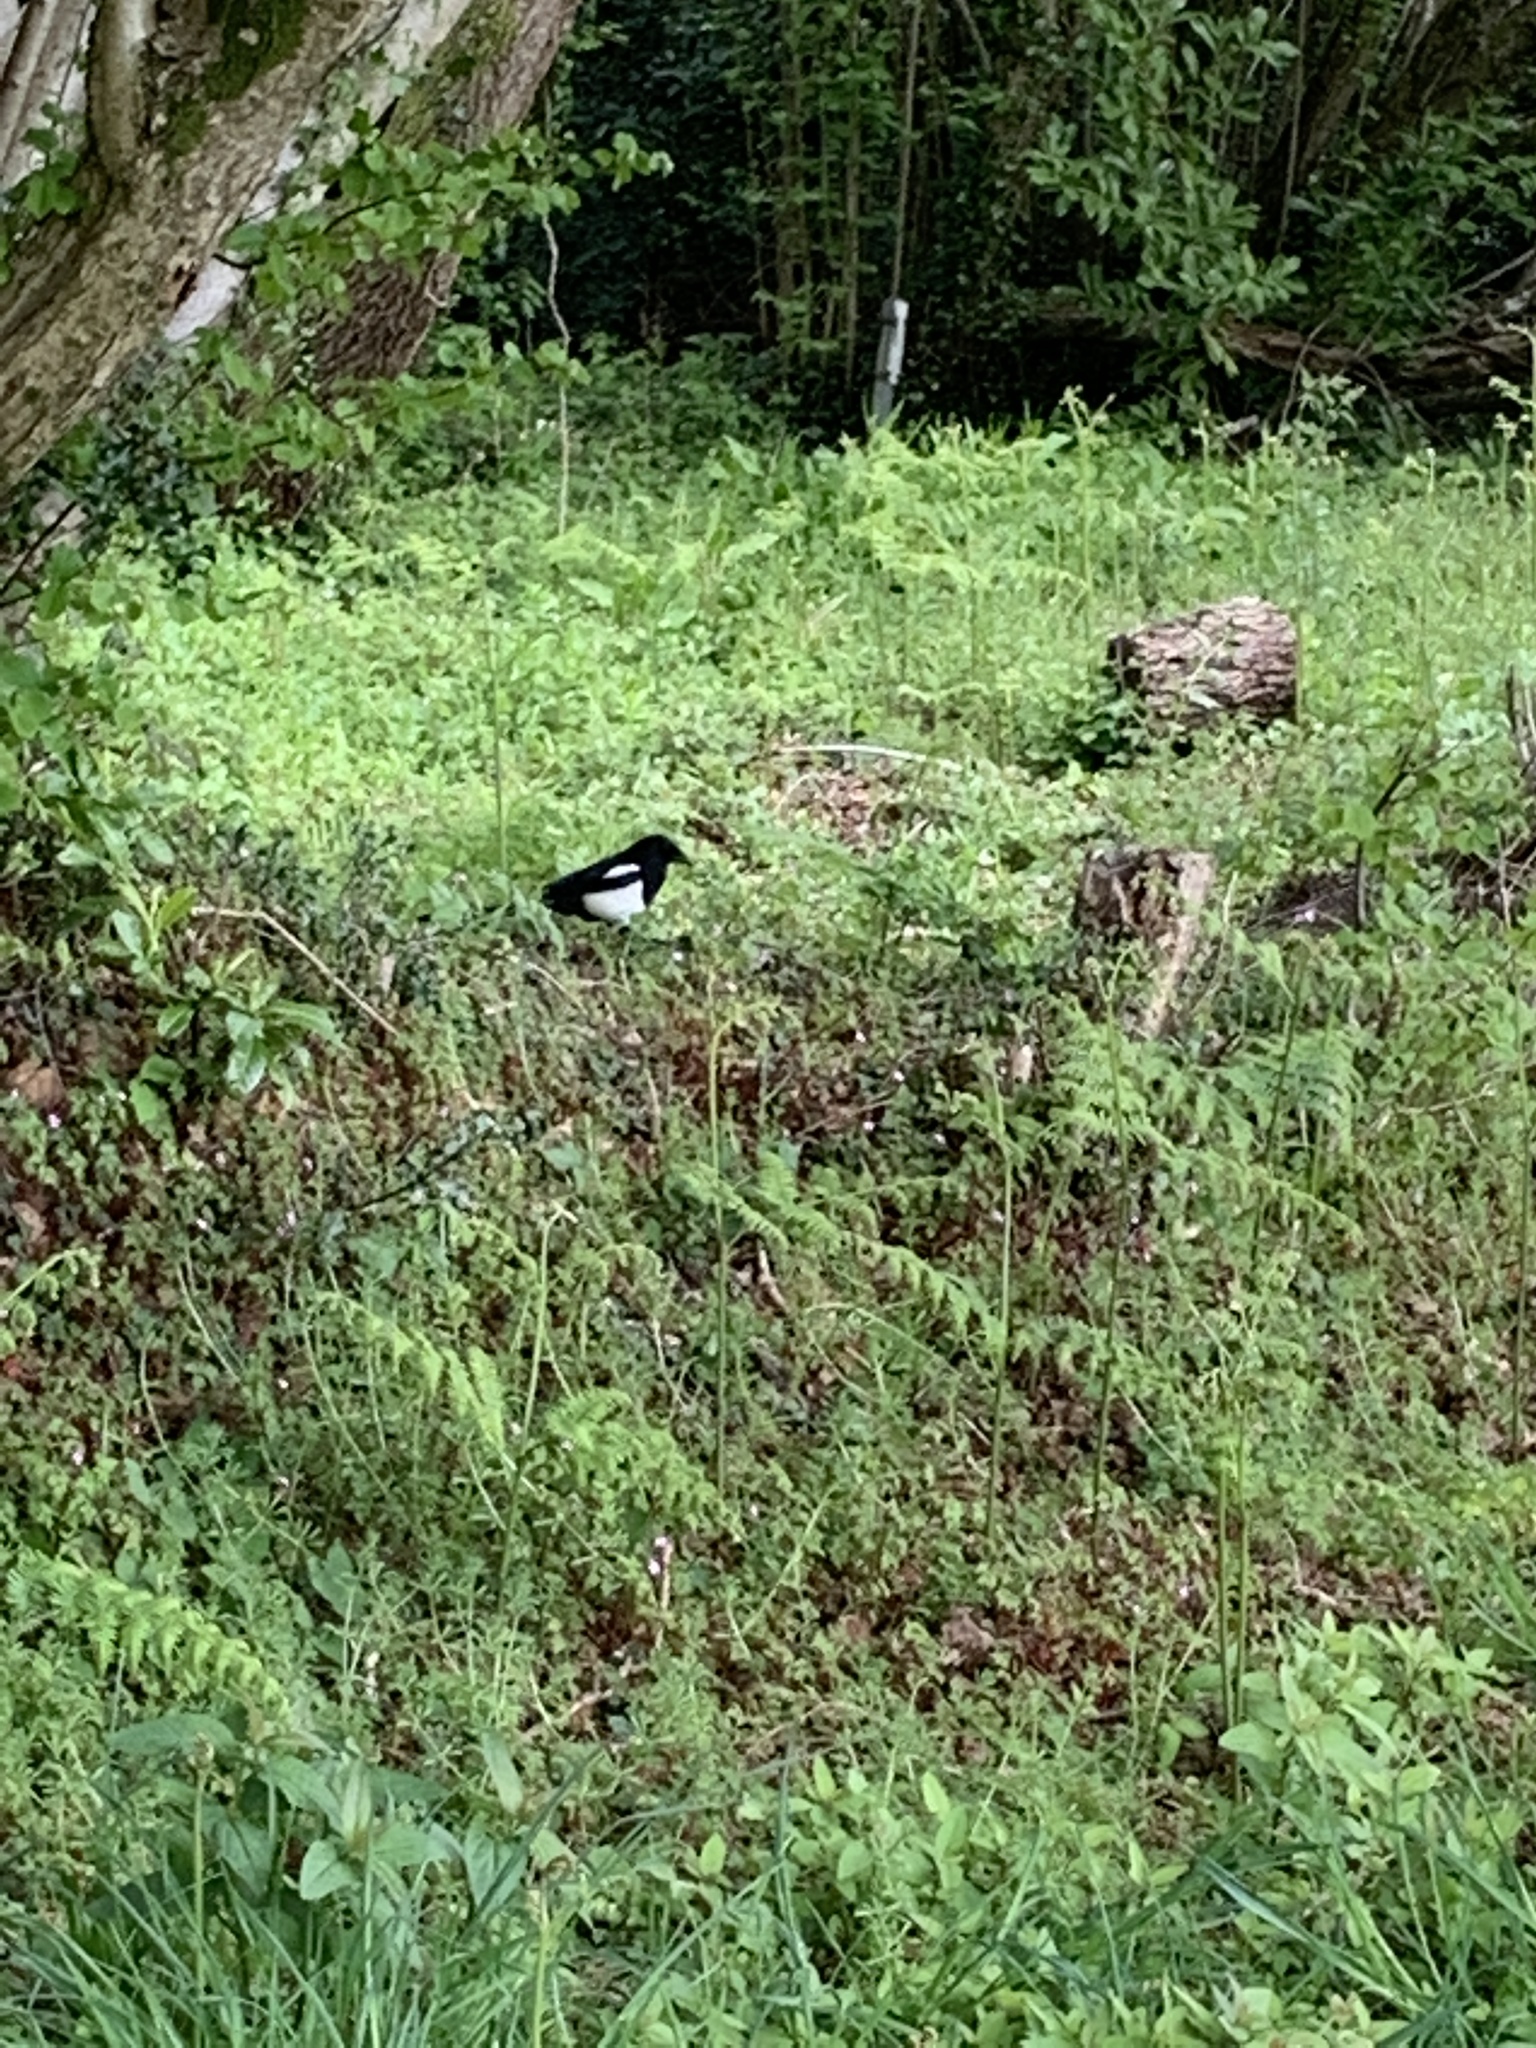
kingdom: Animalia
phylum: Chordata
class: Aves
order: Passeriformes
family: Corvidae
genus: Pica
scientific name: Pica pica
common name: Eurasian magpie
